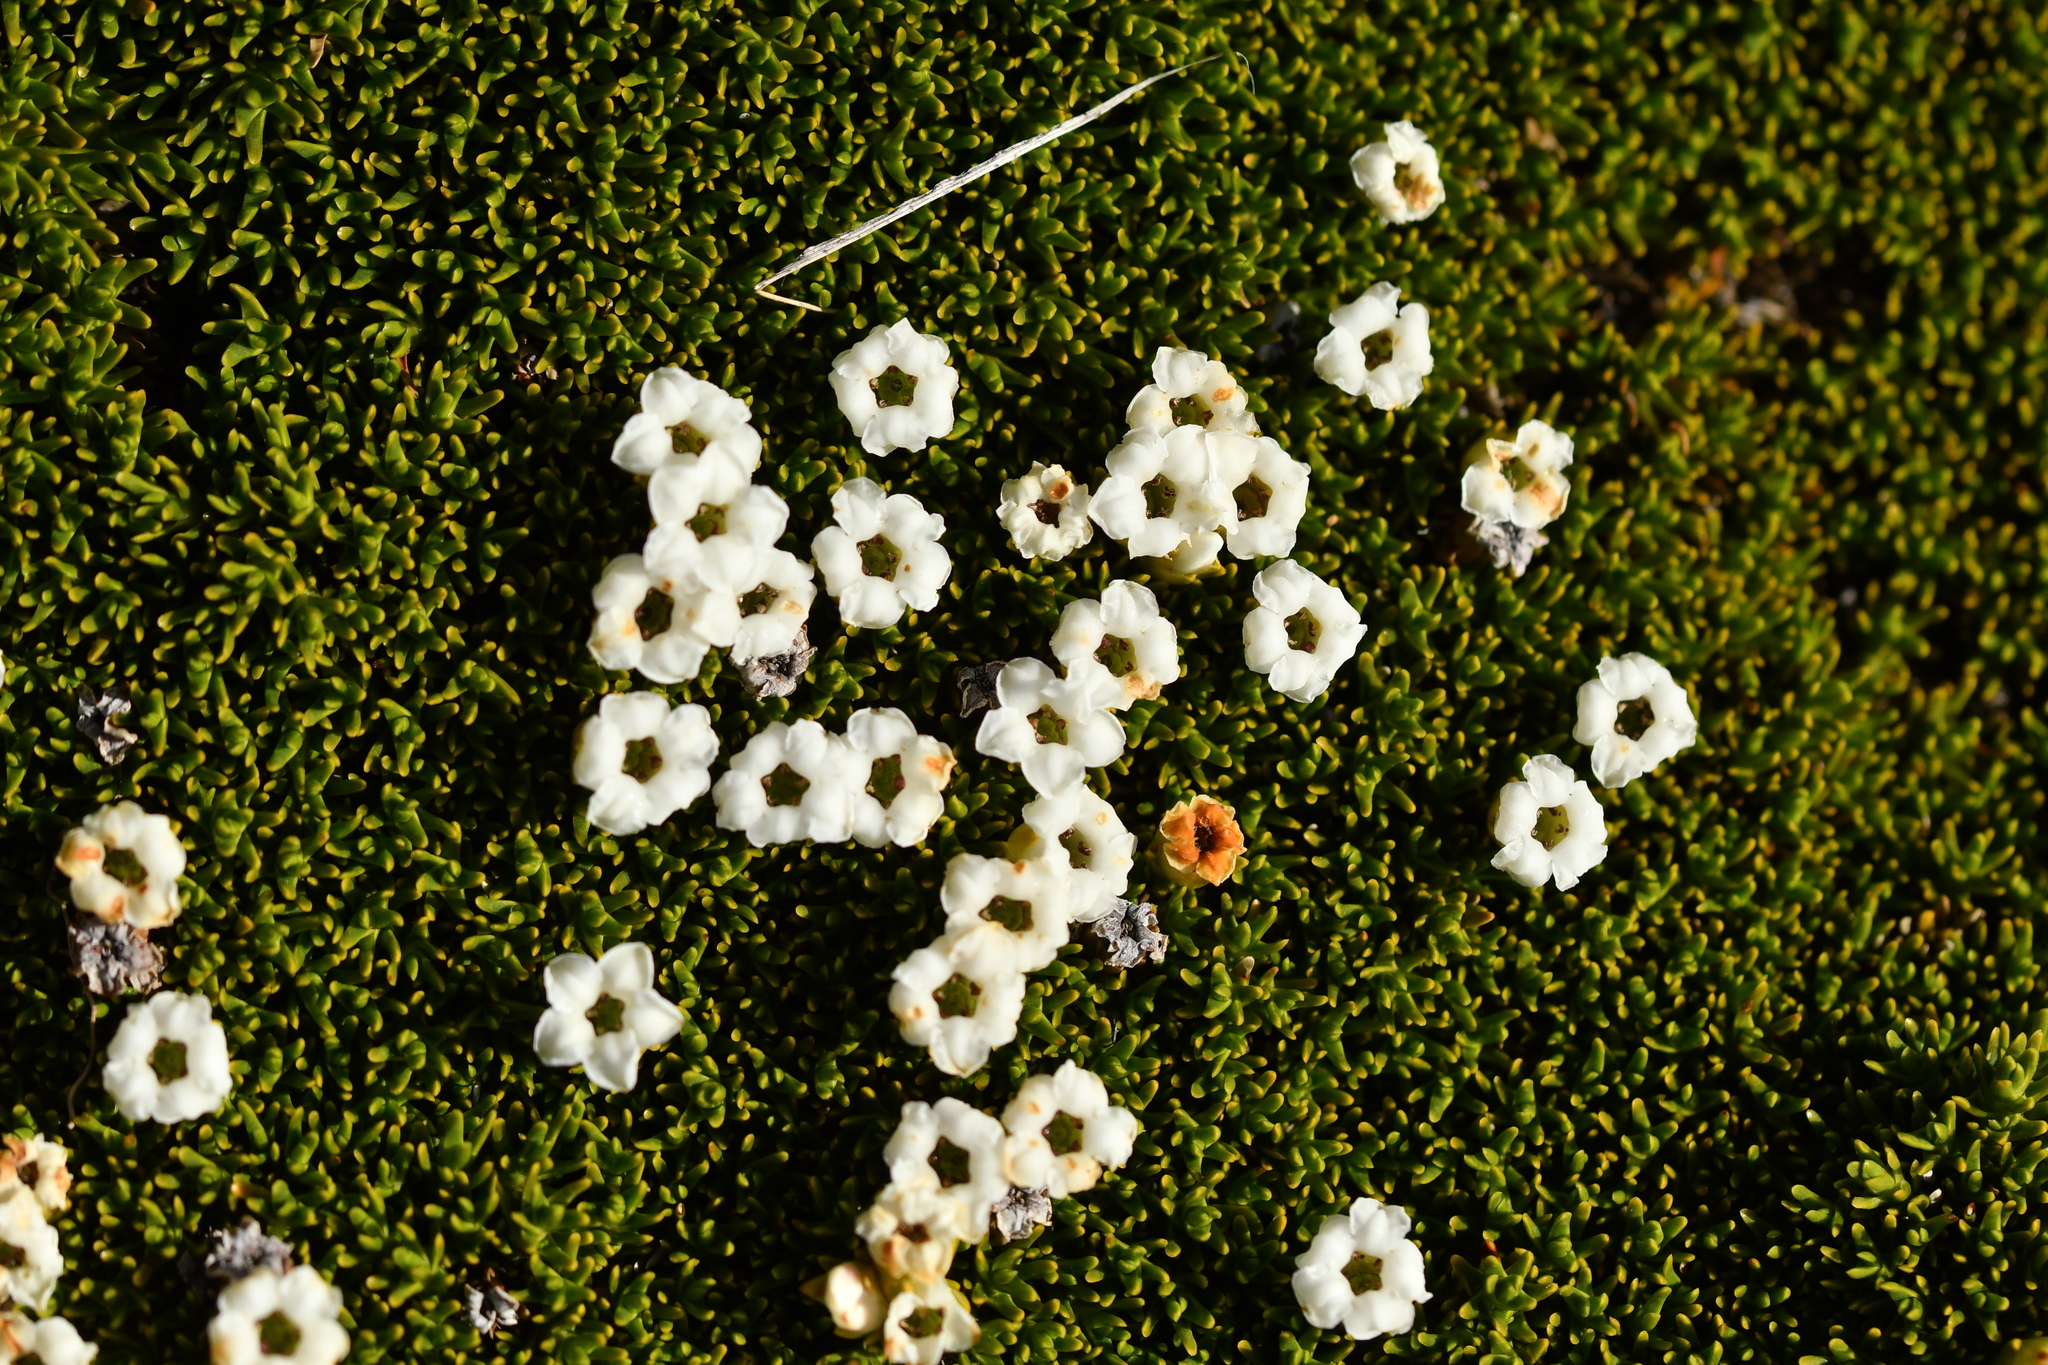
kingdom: Plantae
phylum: Tracheophyta
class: Magnoliopsida
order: Ericales
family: Ericaceae
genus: Dracophyllum
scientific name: Dracophyllum muscoides
